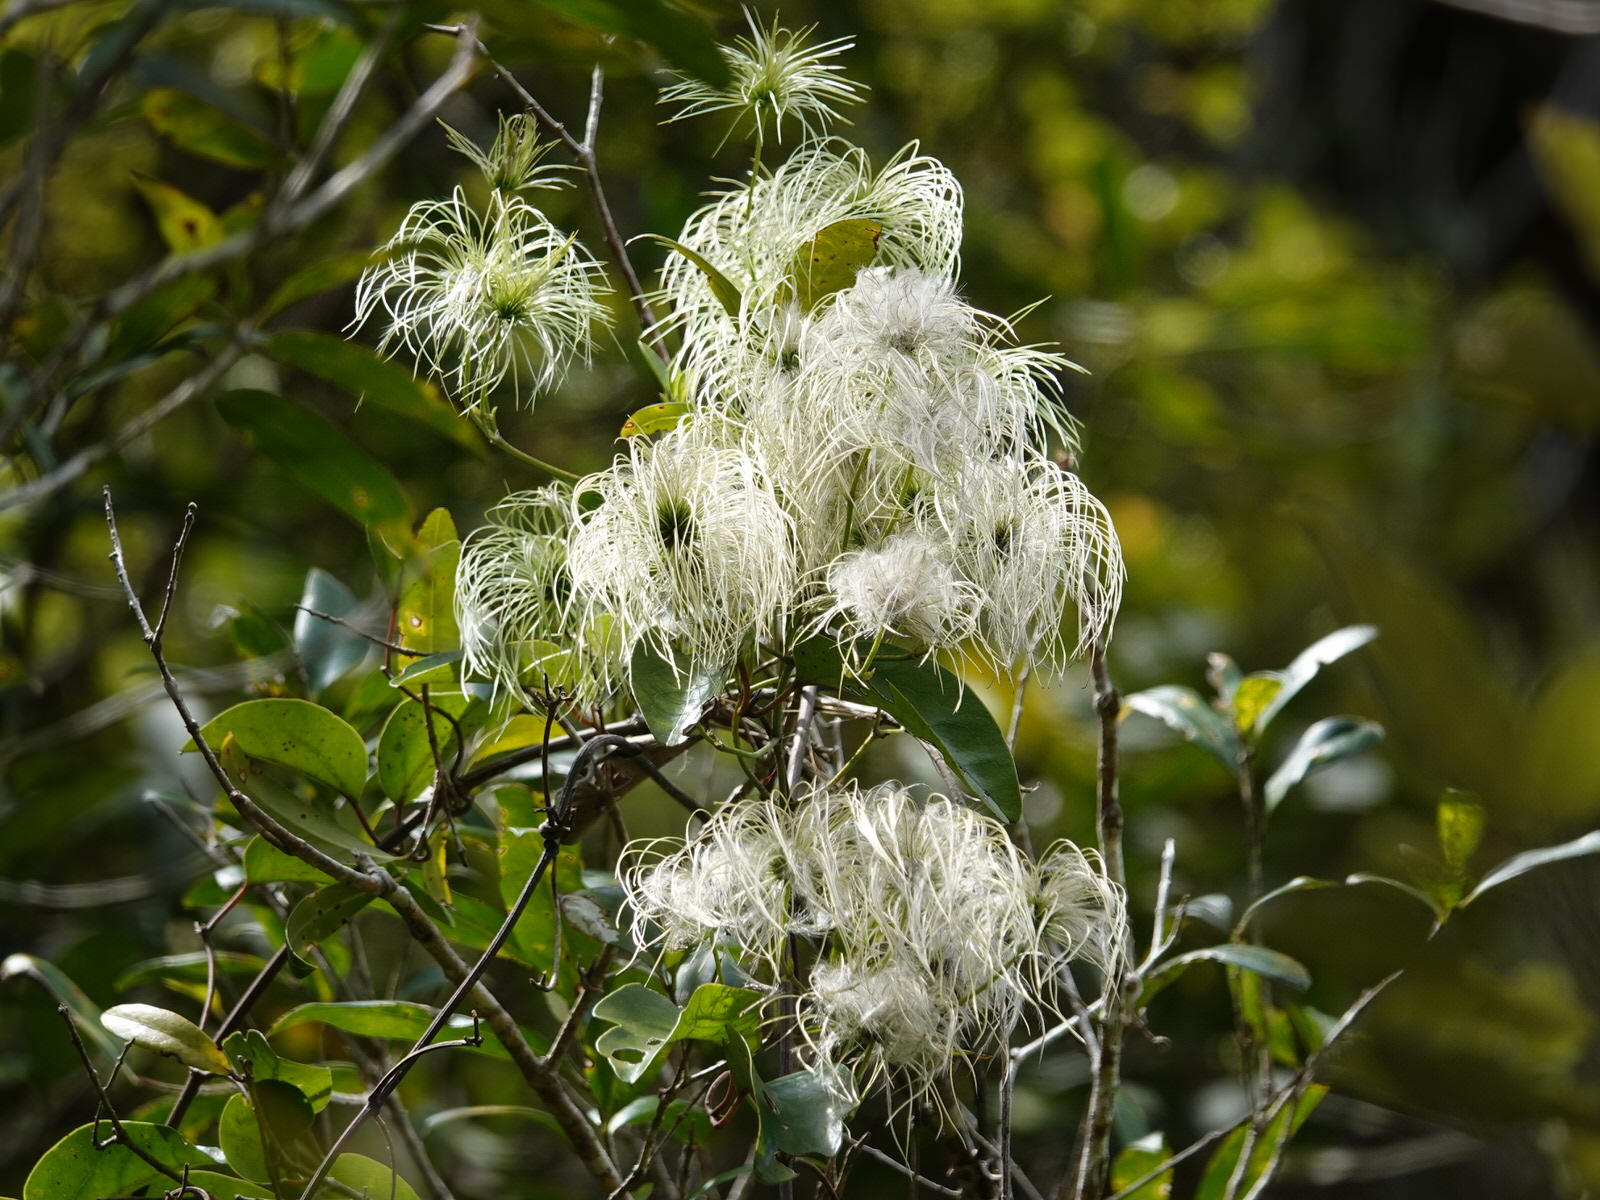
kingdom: Plantae
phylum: Tracheophyta
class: Magnoliopsida
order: Ranunculales
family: Ranunculaceae
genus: Clematis
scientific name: Clematis paniculata
